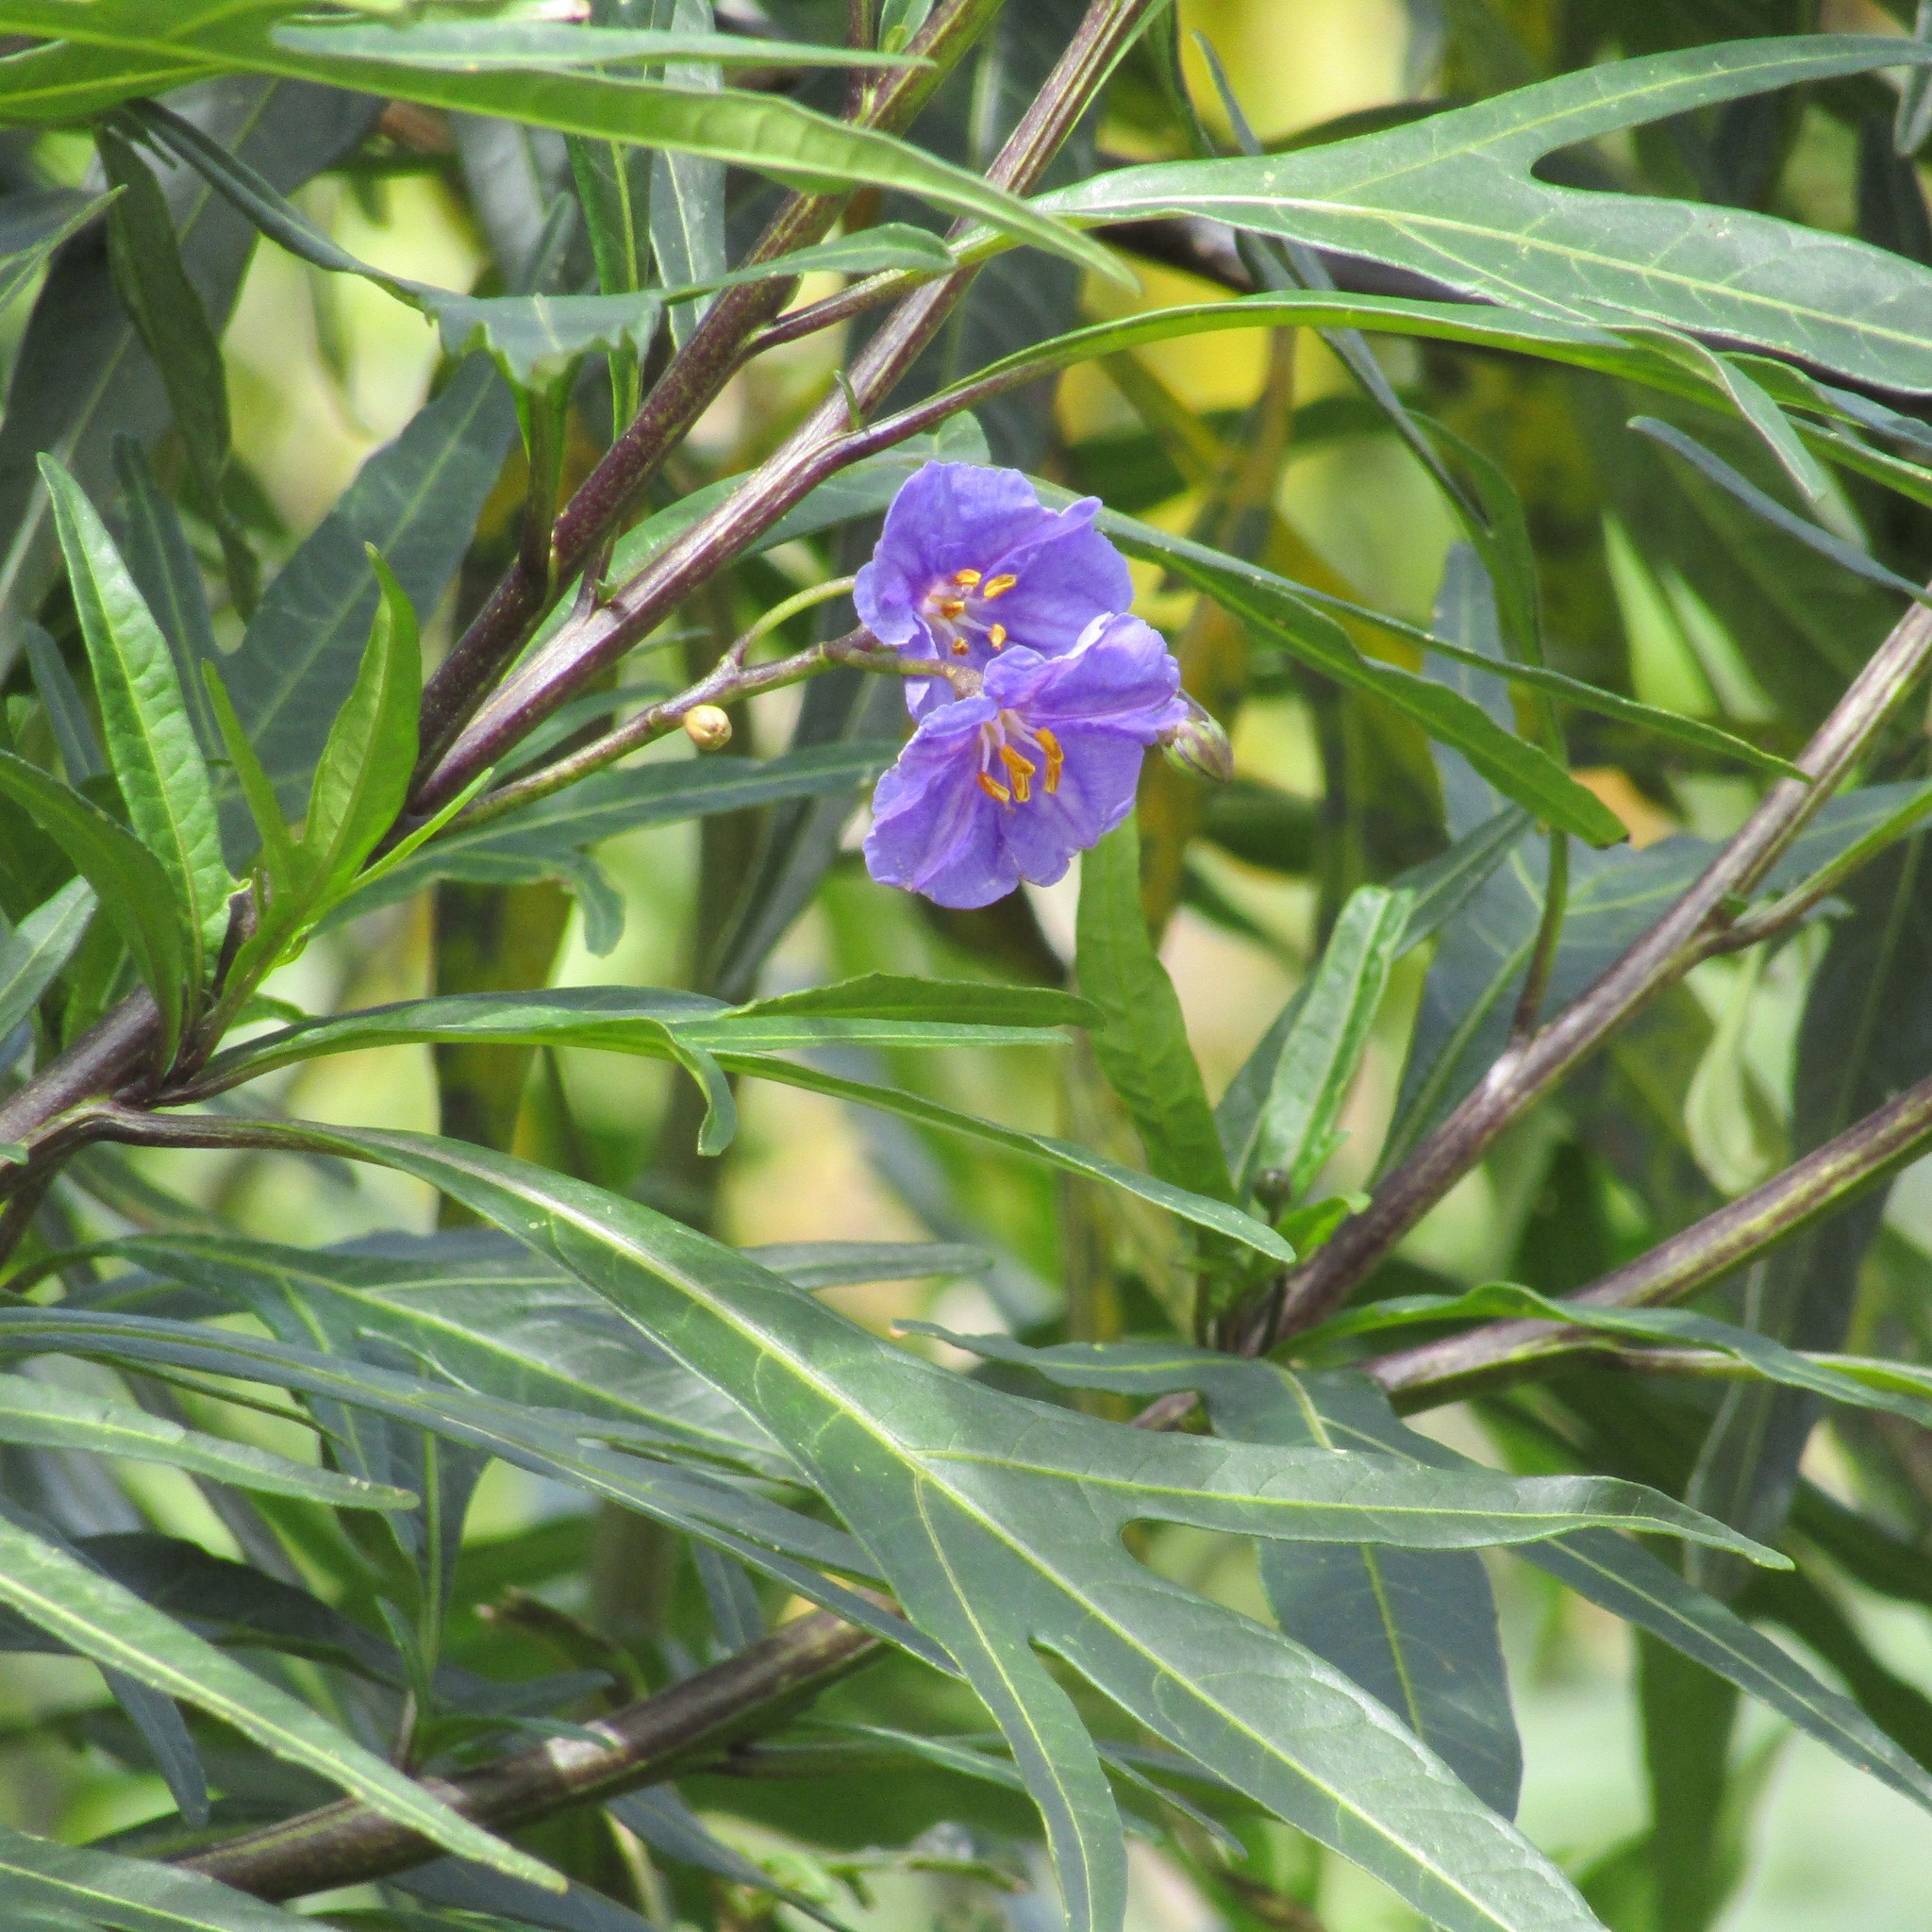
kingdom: Plantae
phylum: Tracheophyta
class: Magnoliopsida
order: Solanales
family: Solanaceae
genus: Solanum
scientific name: Solanum laciniatum
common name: Kangaroo-apple
